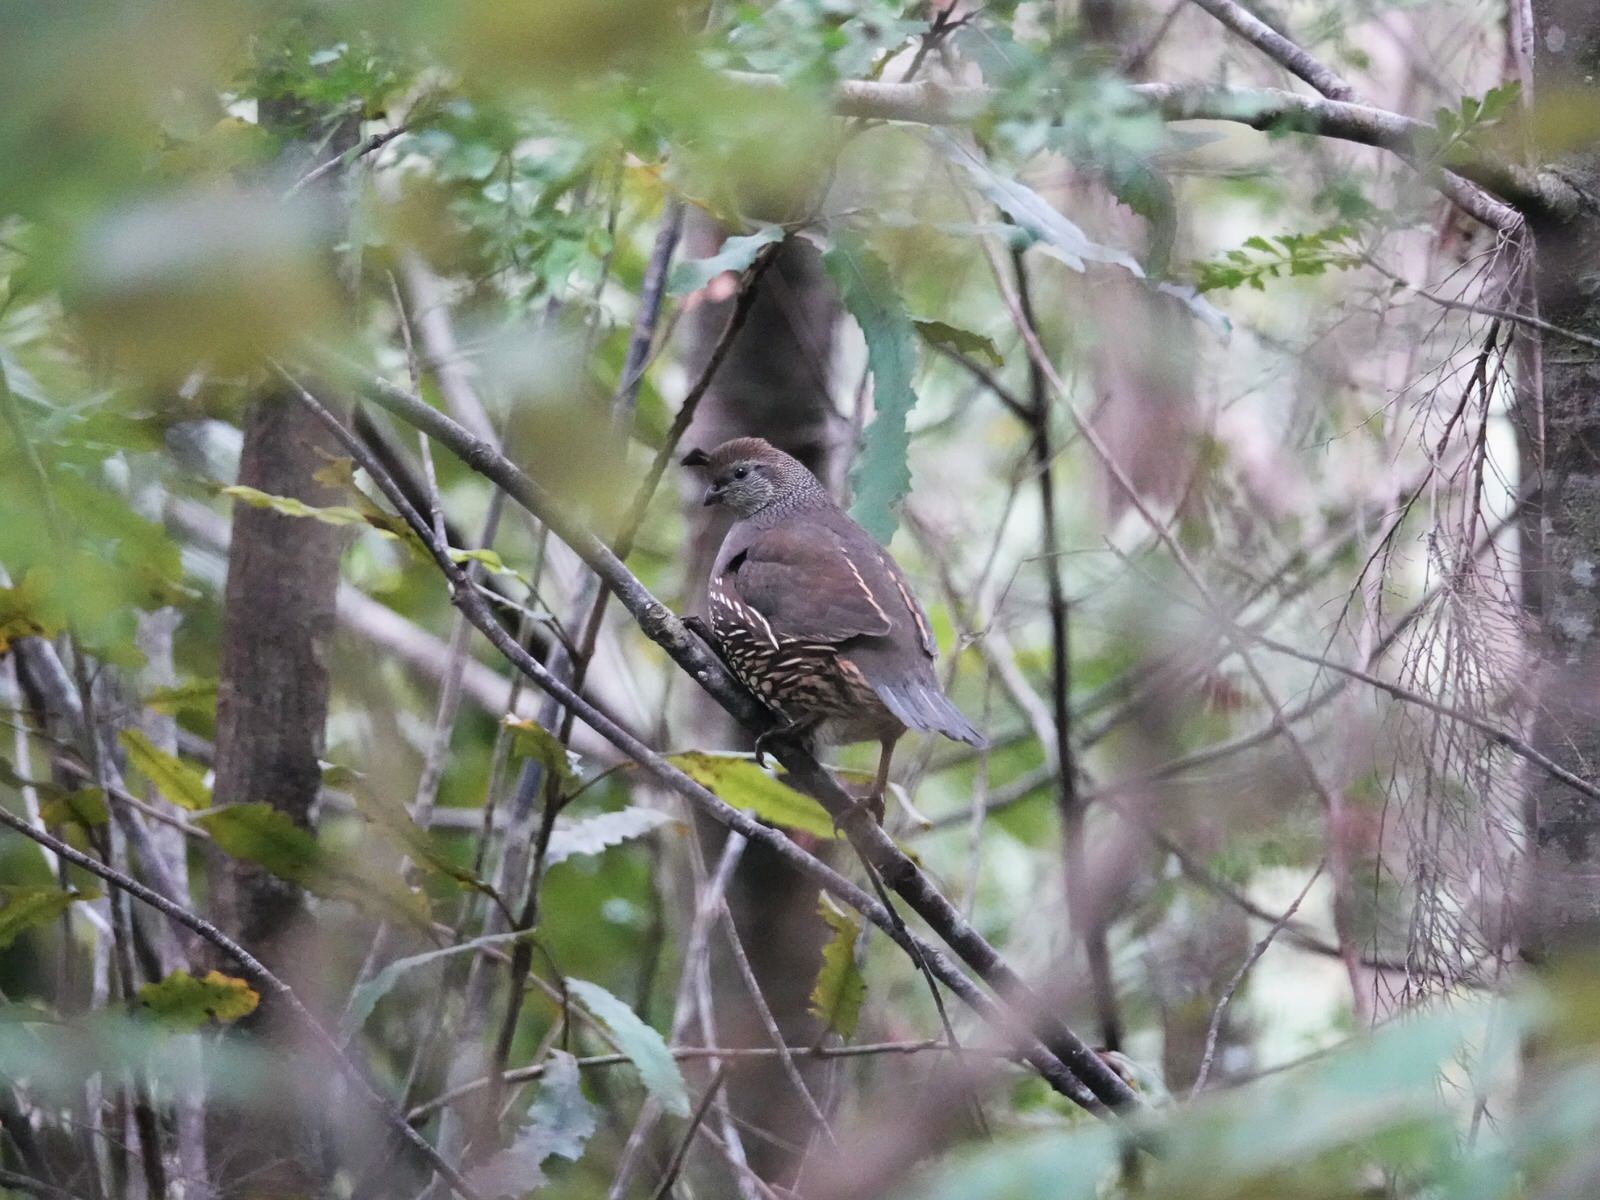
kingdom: Animalia
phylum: Chordata
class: Aves
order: Galliformes
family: Odontophoridae
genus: Callipepla
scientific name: Callipepla californica
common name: California quail
